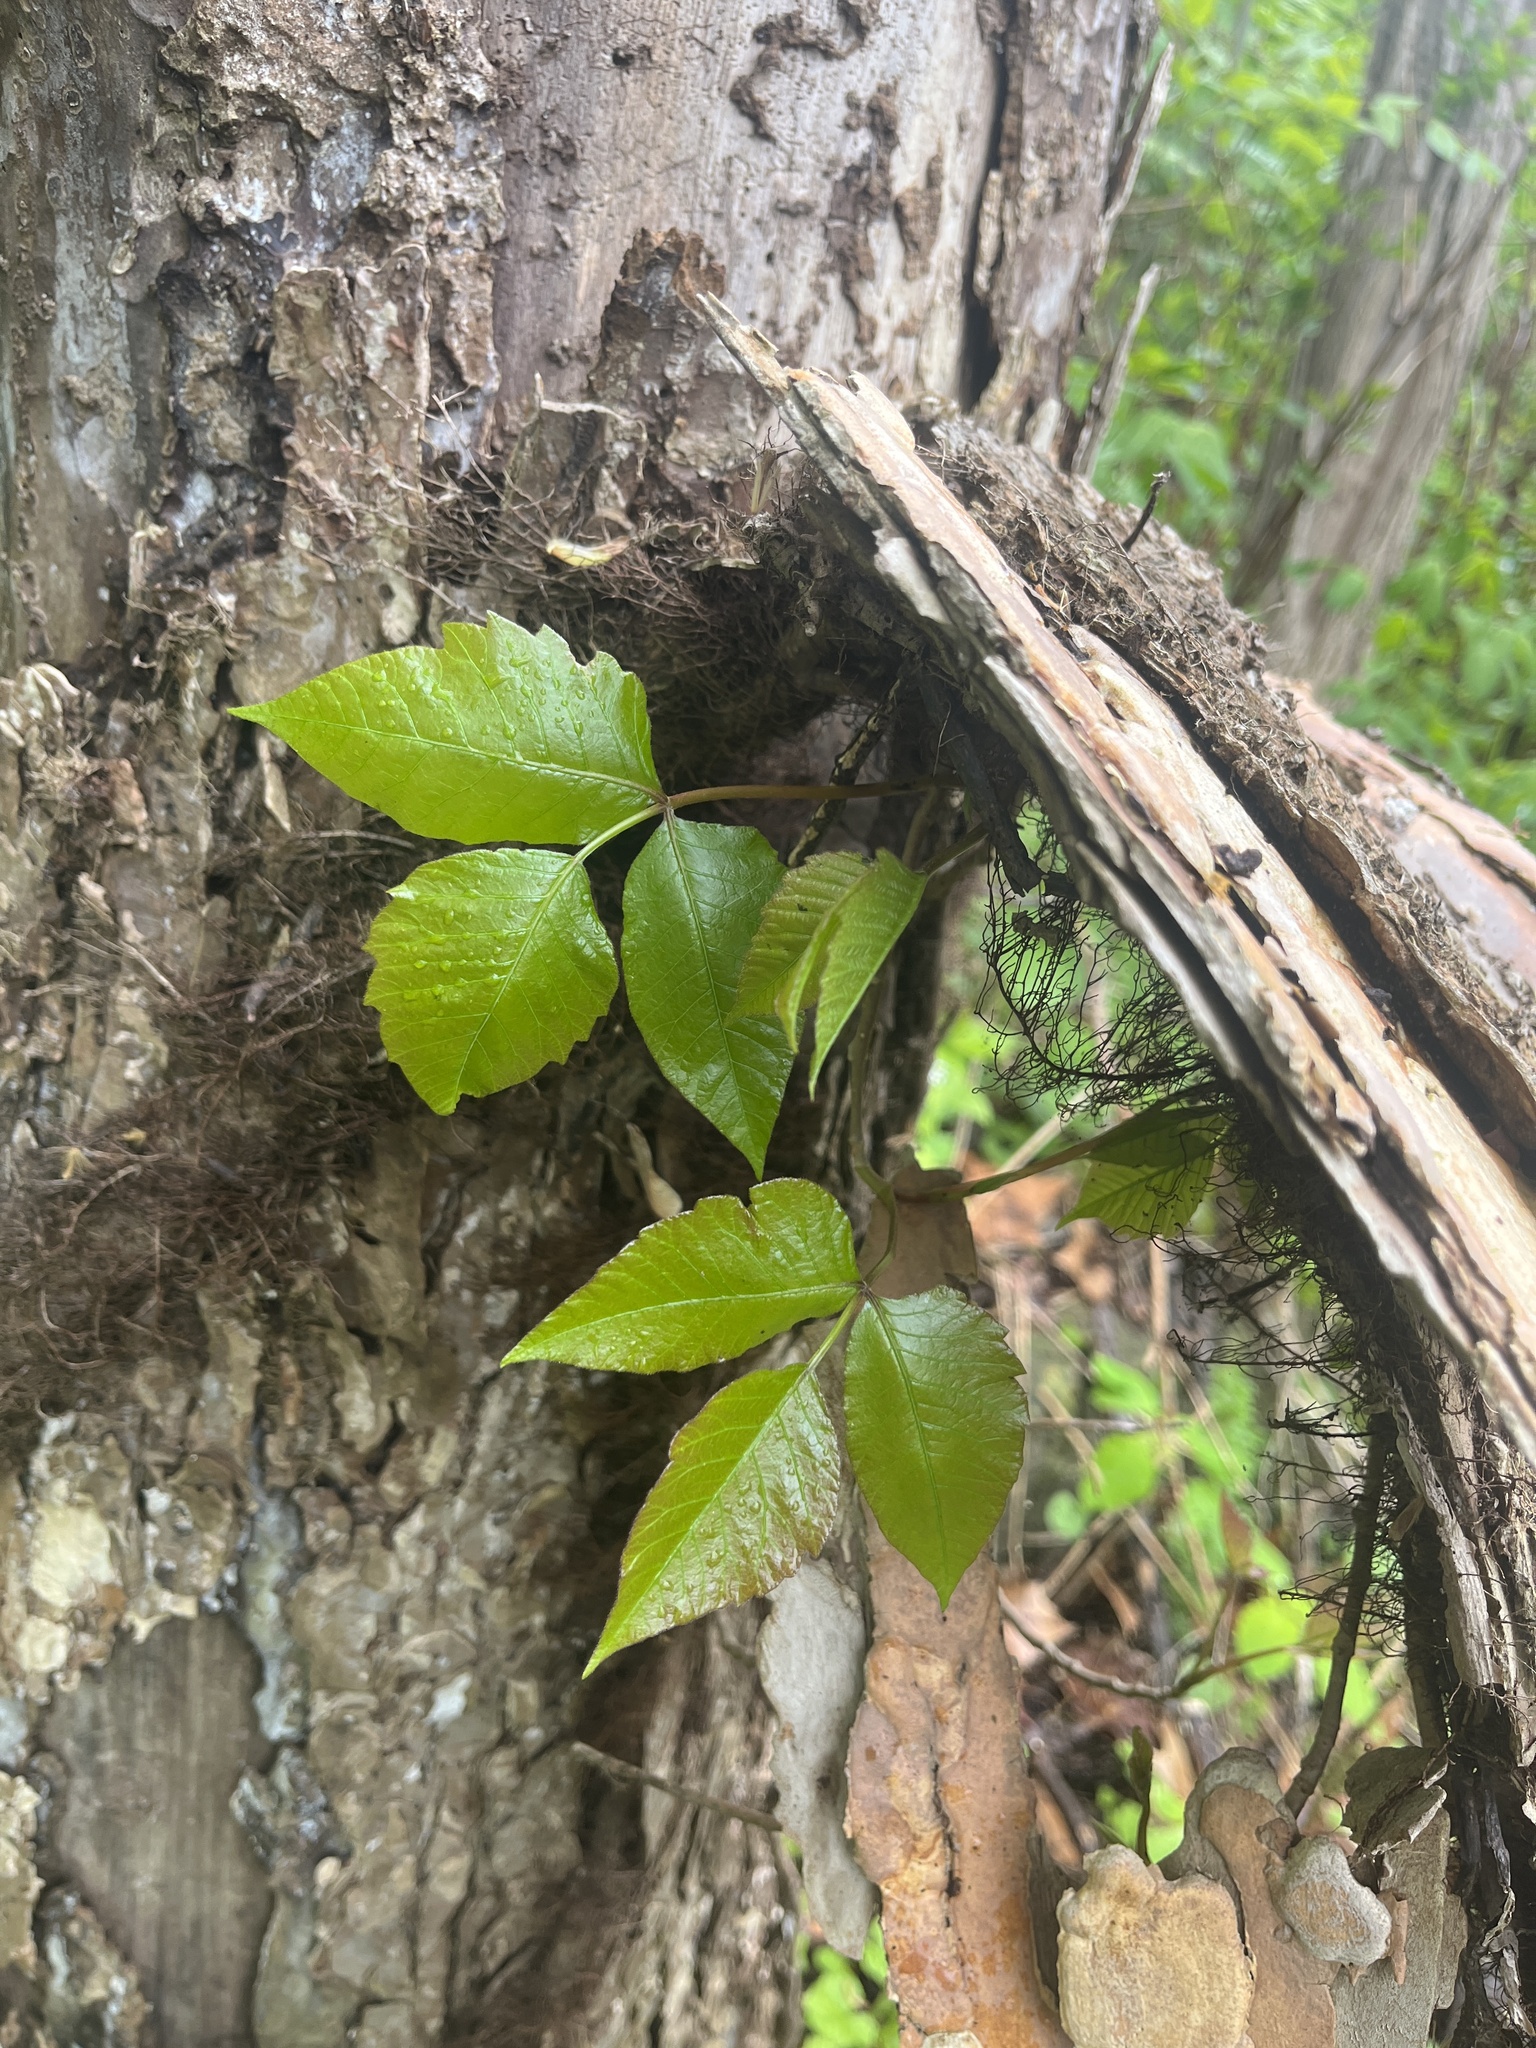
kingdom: Plantae
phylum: Tracheophyta
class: Magnoliopsida
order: Sapindales
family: Anacardiaceae
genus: Toxicodendron
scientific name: Toxicodendron radicans
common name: Poison ivy
